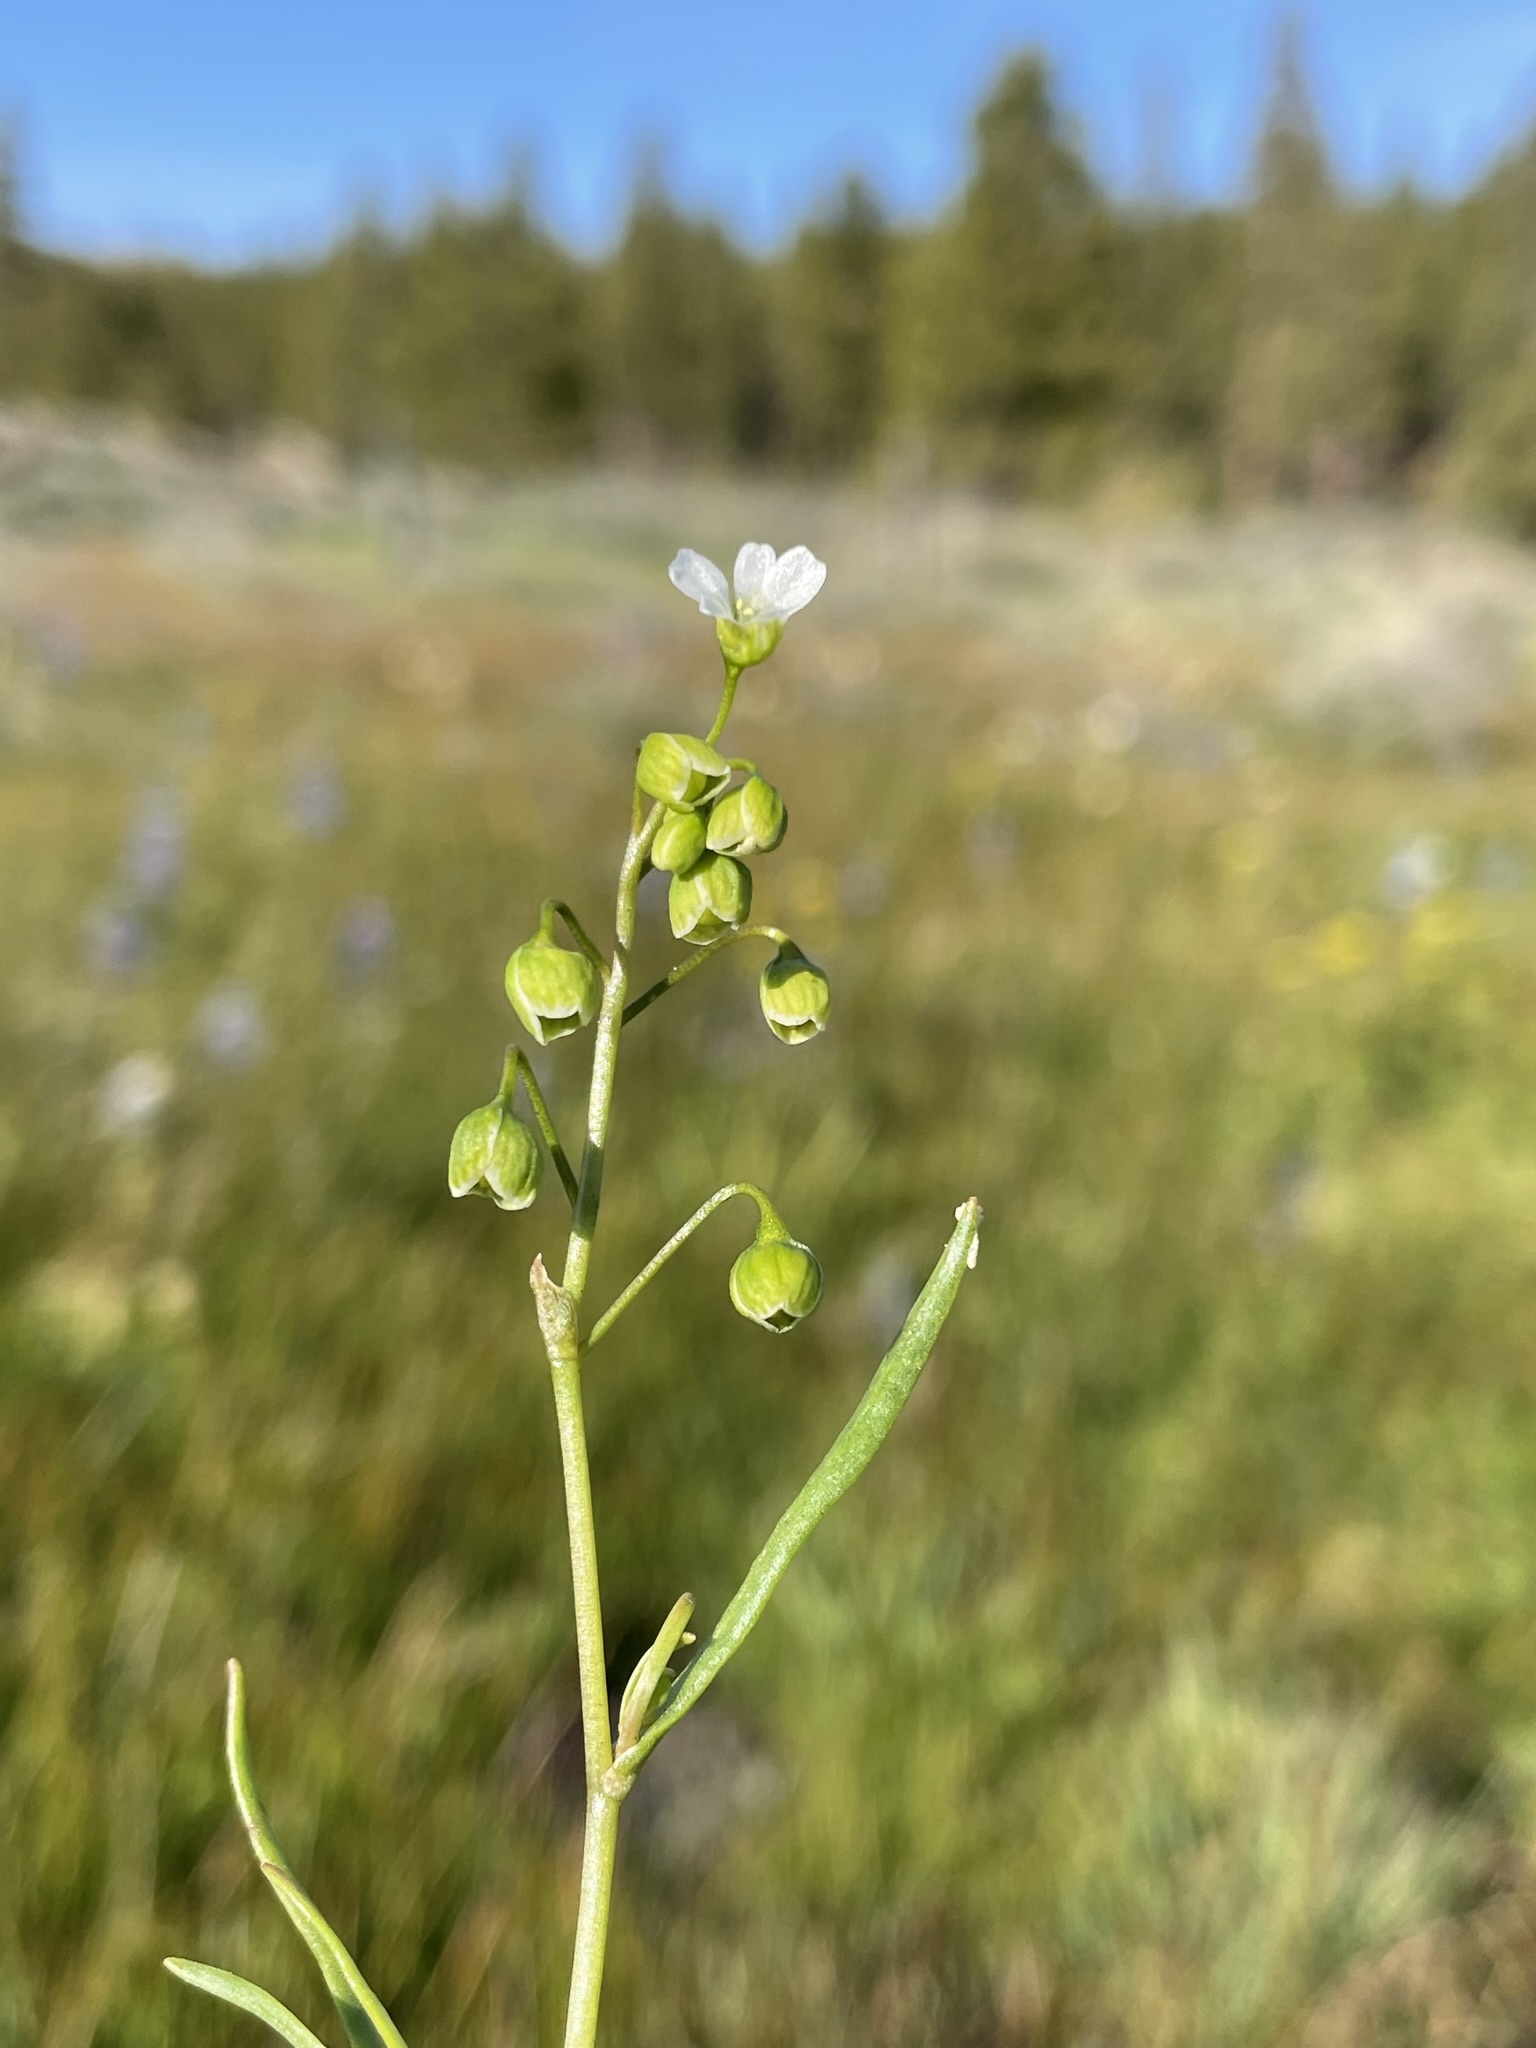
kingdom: Plantae
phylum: Tracheophyta
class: Magnoliopsida
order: Caryophyllales
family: Montiaceae
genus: Montia
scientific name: Montia linearis
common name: Narrow-leaf montia
